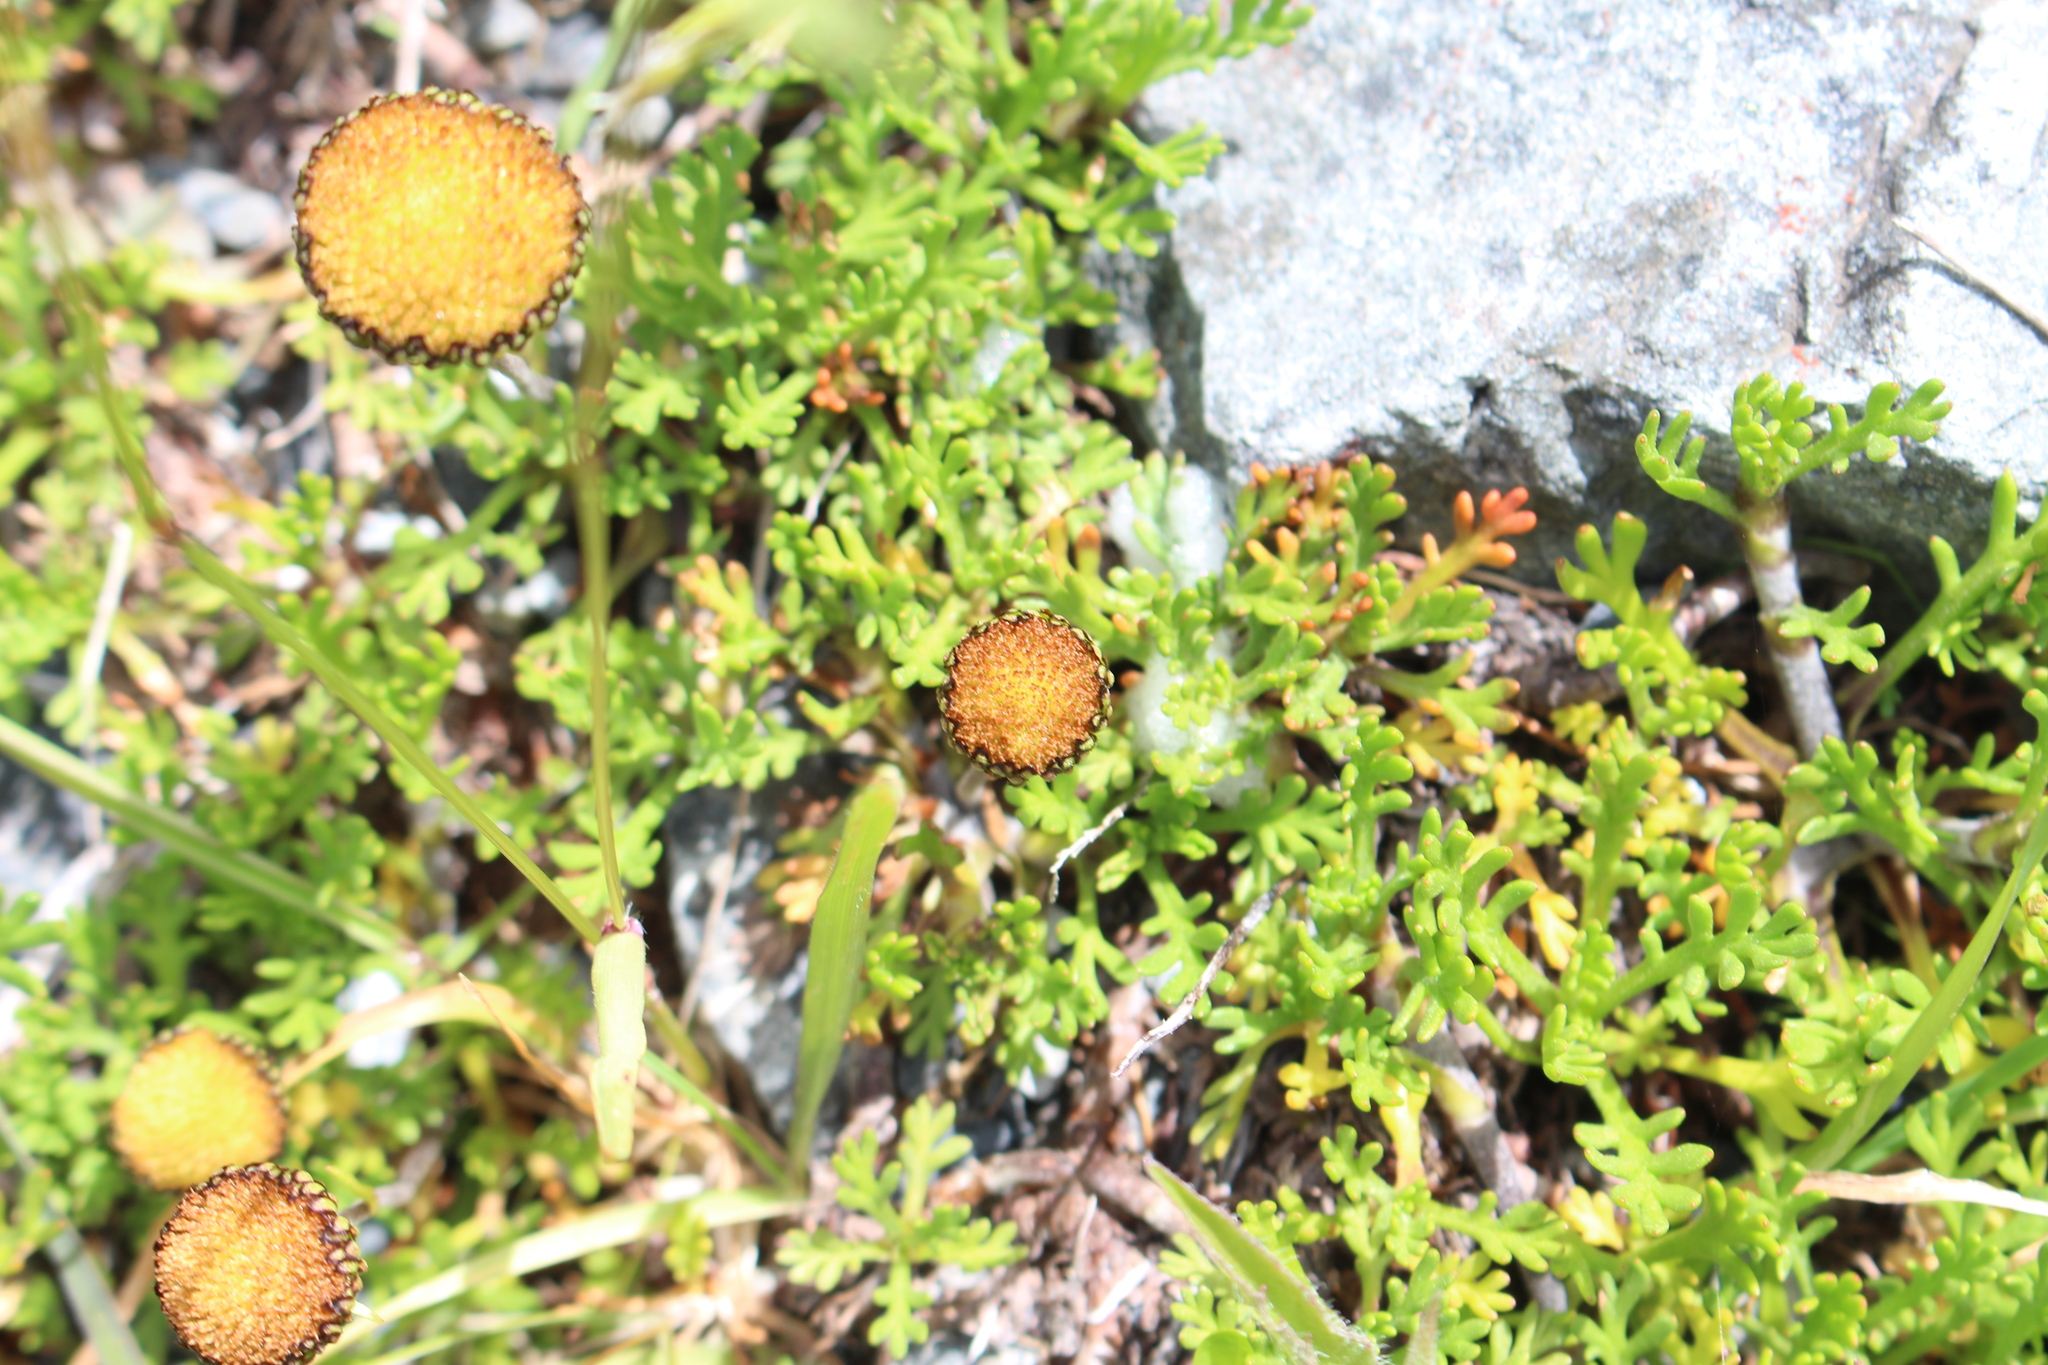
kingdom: Plantae
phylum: Tracheophyta
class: Magnoliopsida
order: Asterales
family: Asteraceae
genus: Leptinella
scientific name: Leptinella pyrethrifolia
